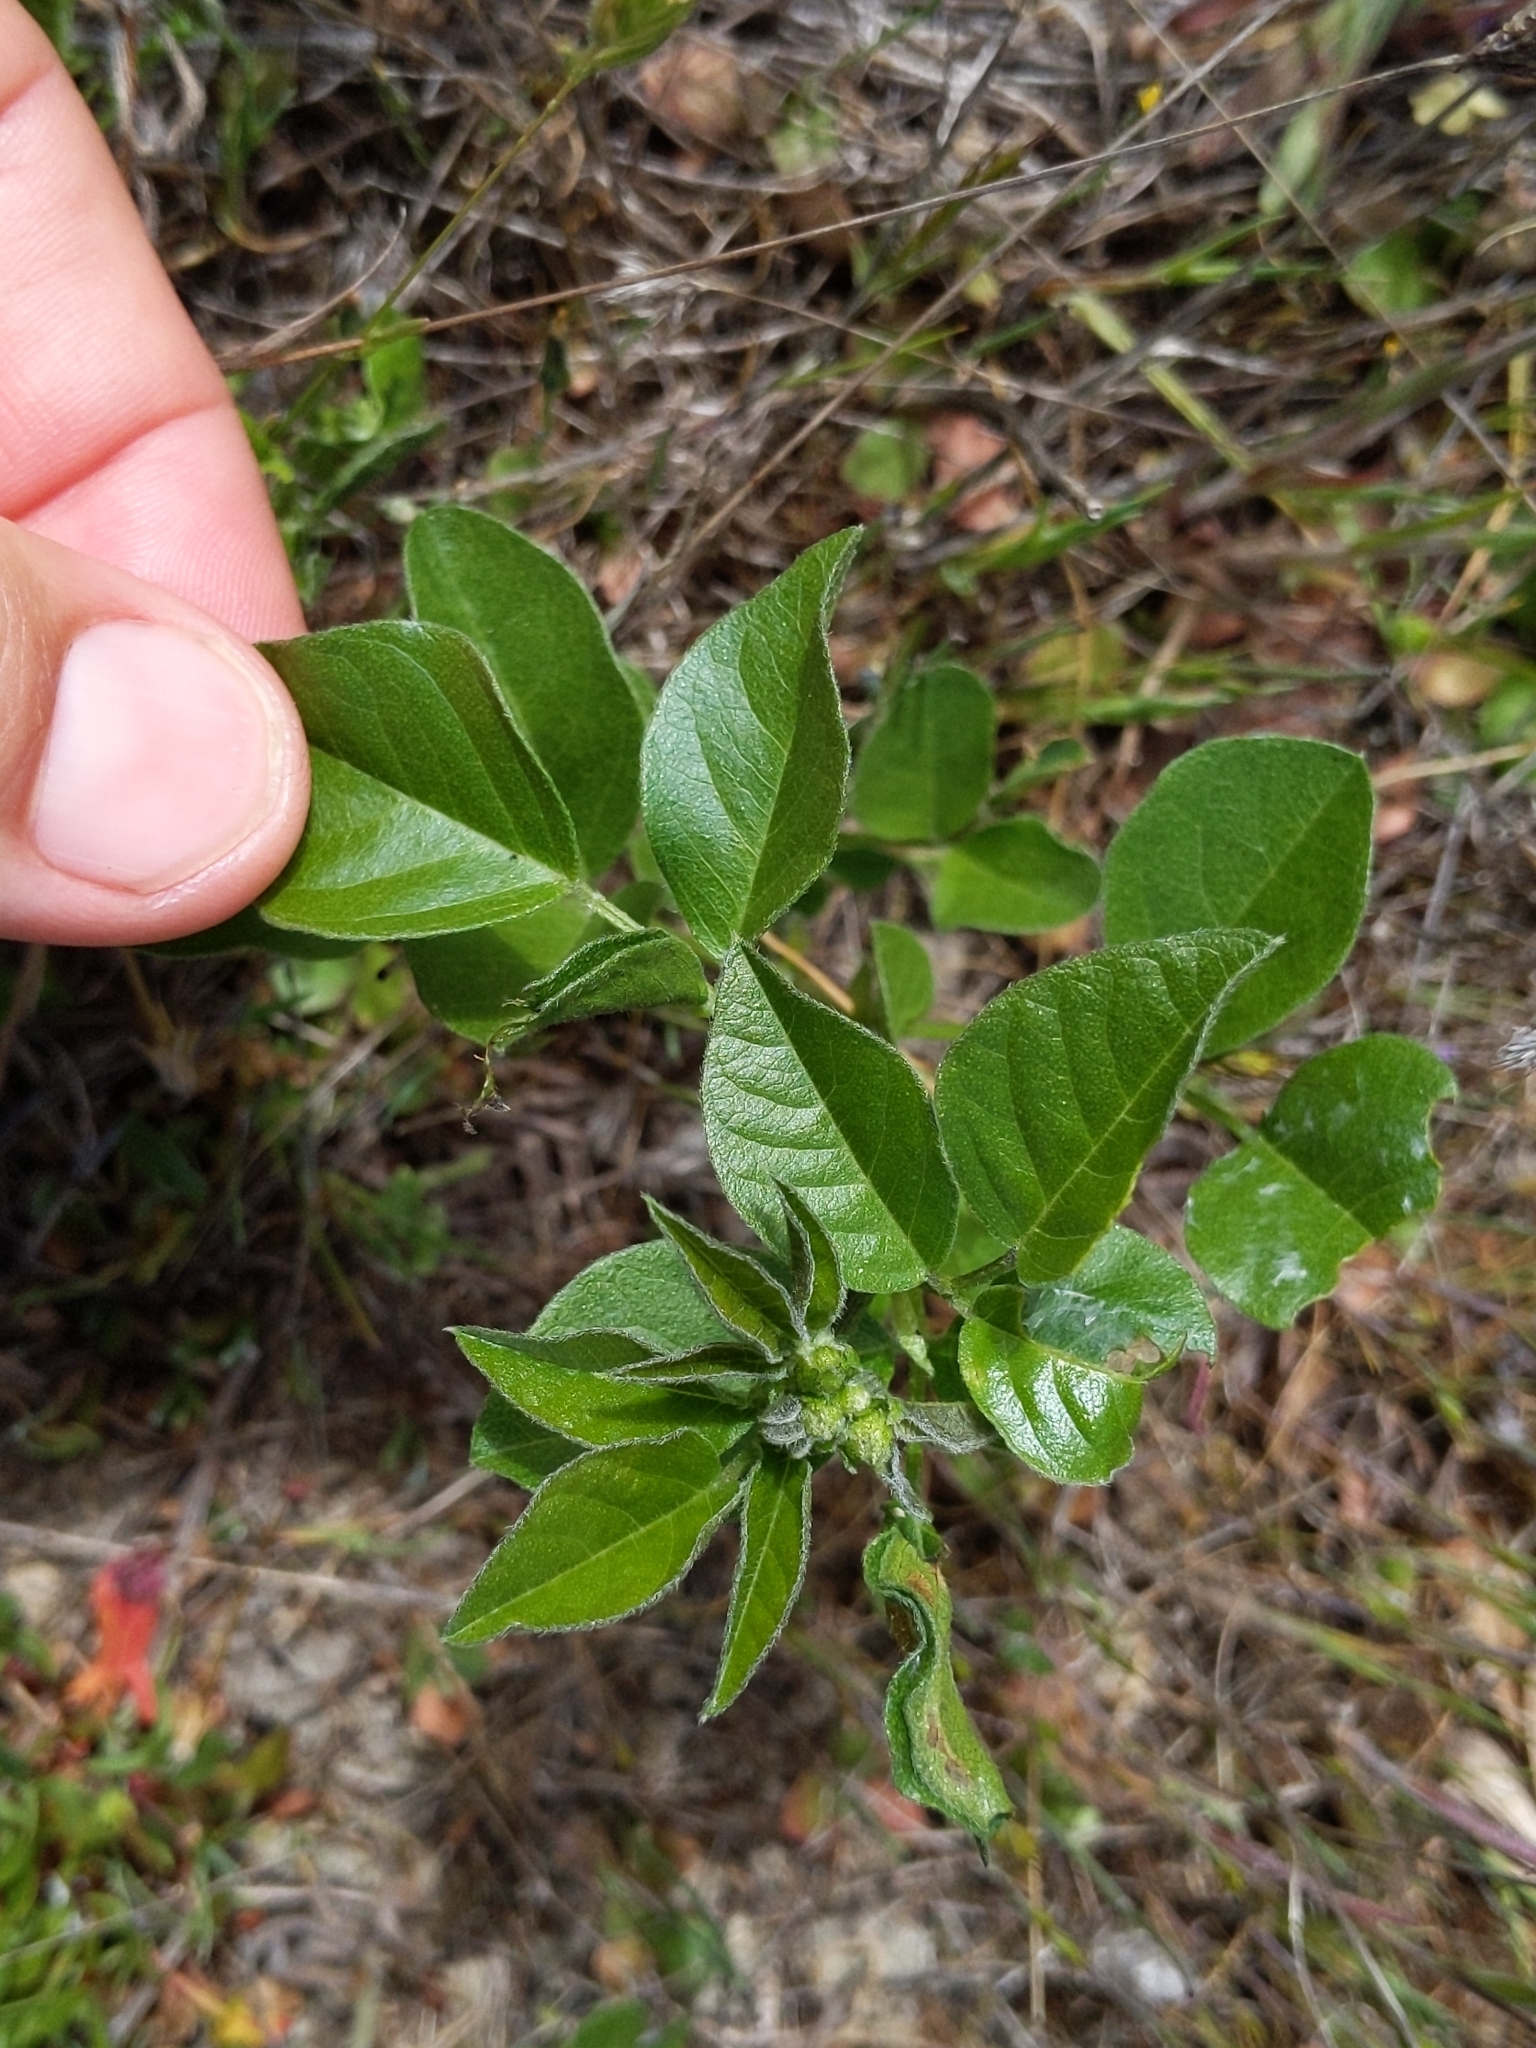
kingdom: Plantae
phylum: Tracheophyta
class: Magnoliopsida
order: Fabales
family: Fabaceae
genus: Rupertia
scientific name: Rupertia physodes
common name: California-tea
